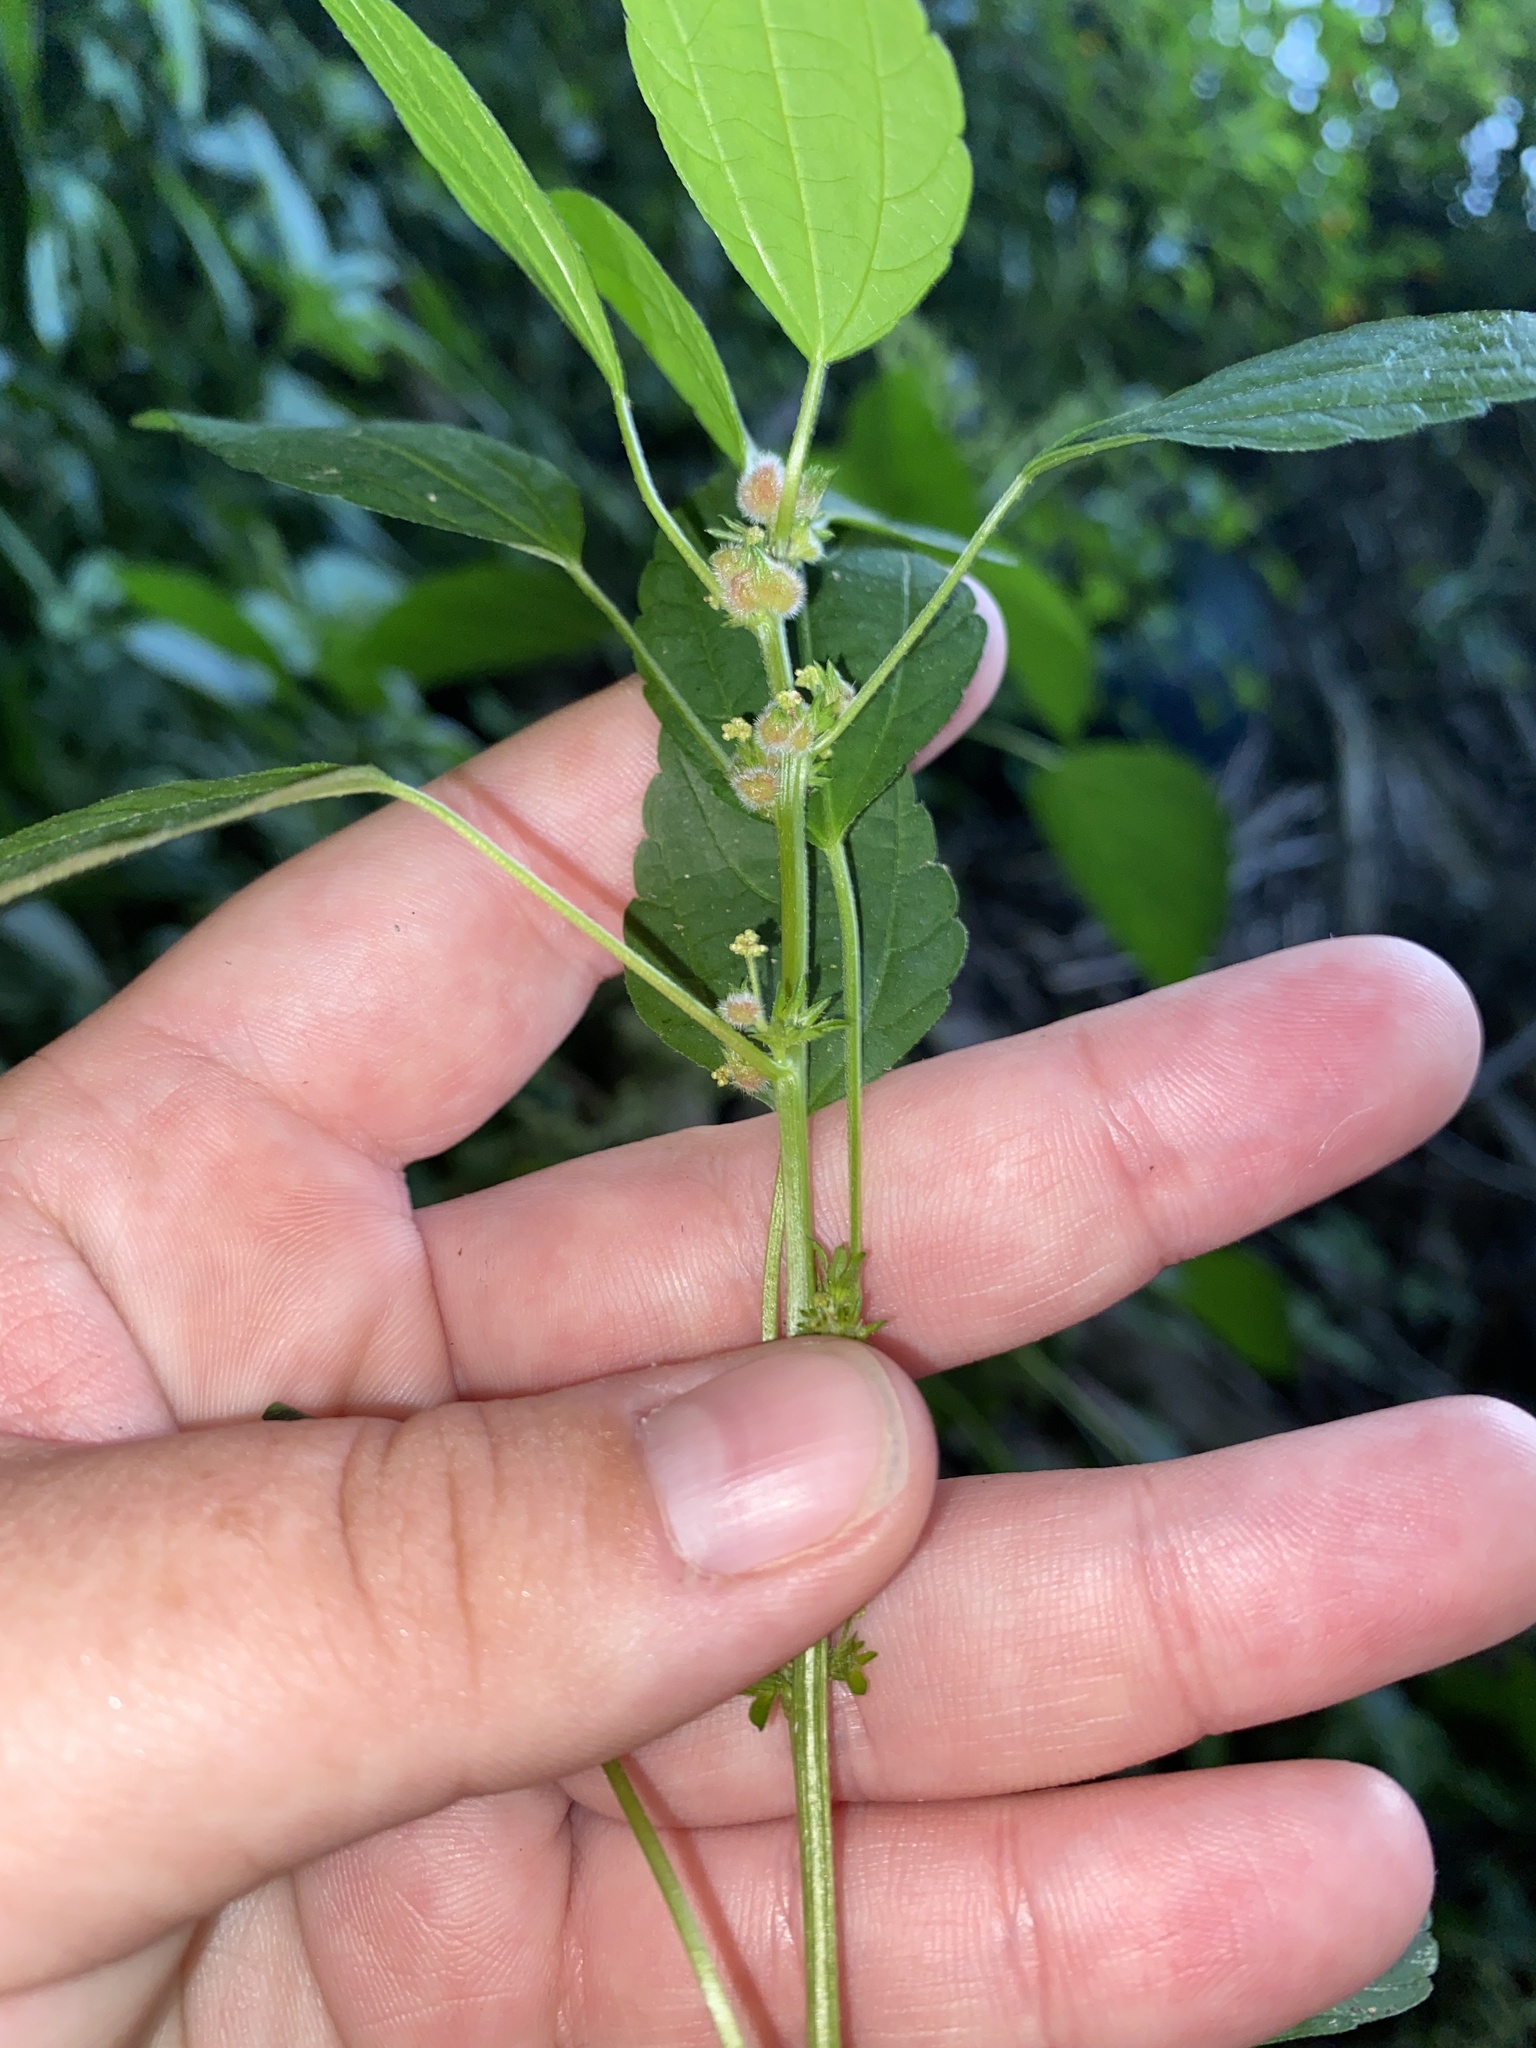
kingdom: Plantae
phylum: Tracheophyta
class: Magnoliopsida
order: Malpighiales
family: Euphorbiaceae
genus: Acalypha
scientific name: Acalypha rhomboidea
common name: Rhombic copperleaf
